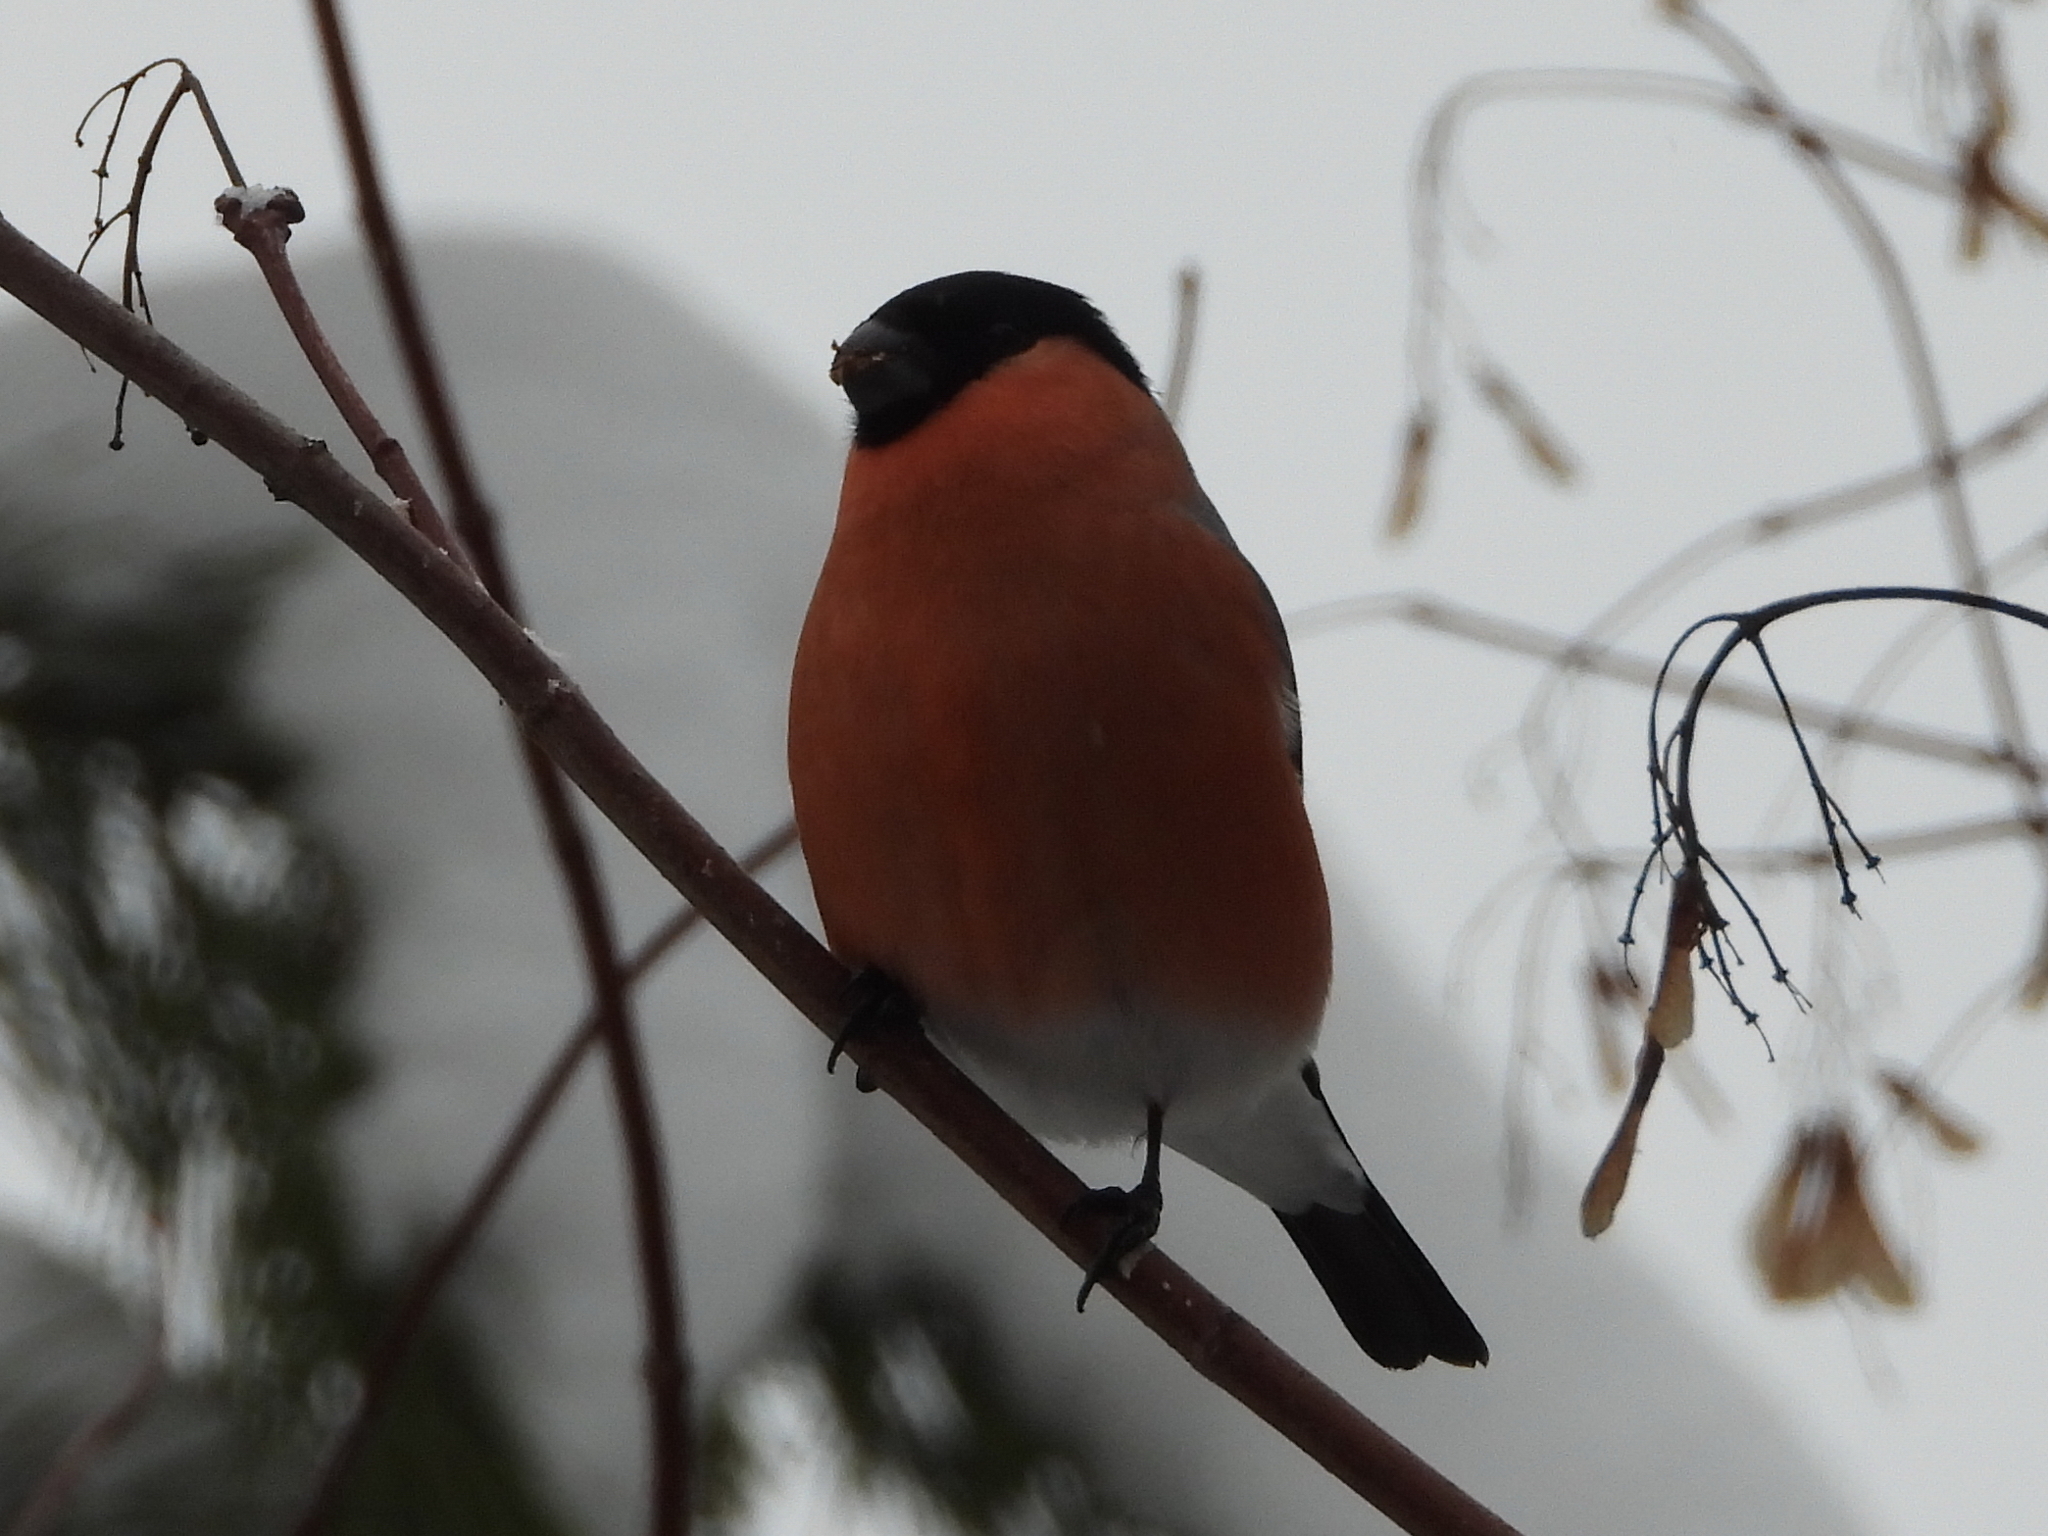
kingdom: Animalia
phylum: Chordata
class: Aves
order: Passeriformes
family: Fringillidae
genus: Pyrrhula
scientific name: Pyrrhula pyrrhula
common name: Eurasian bullfinch
